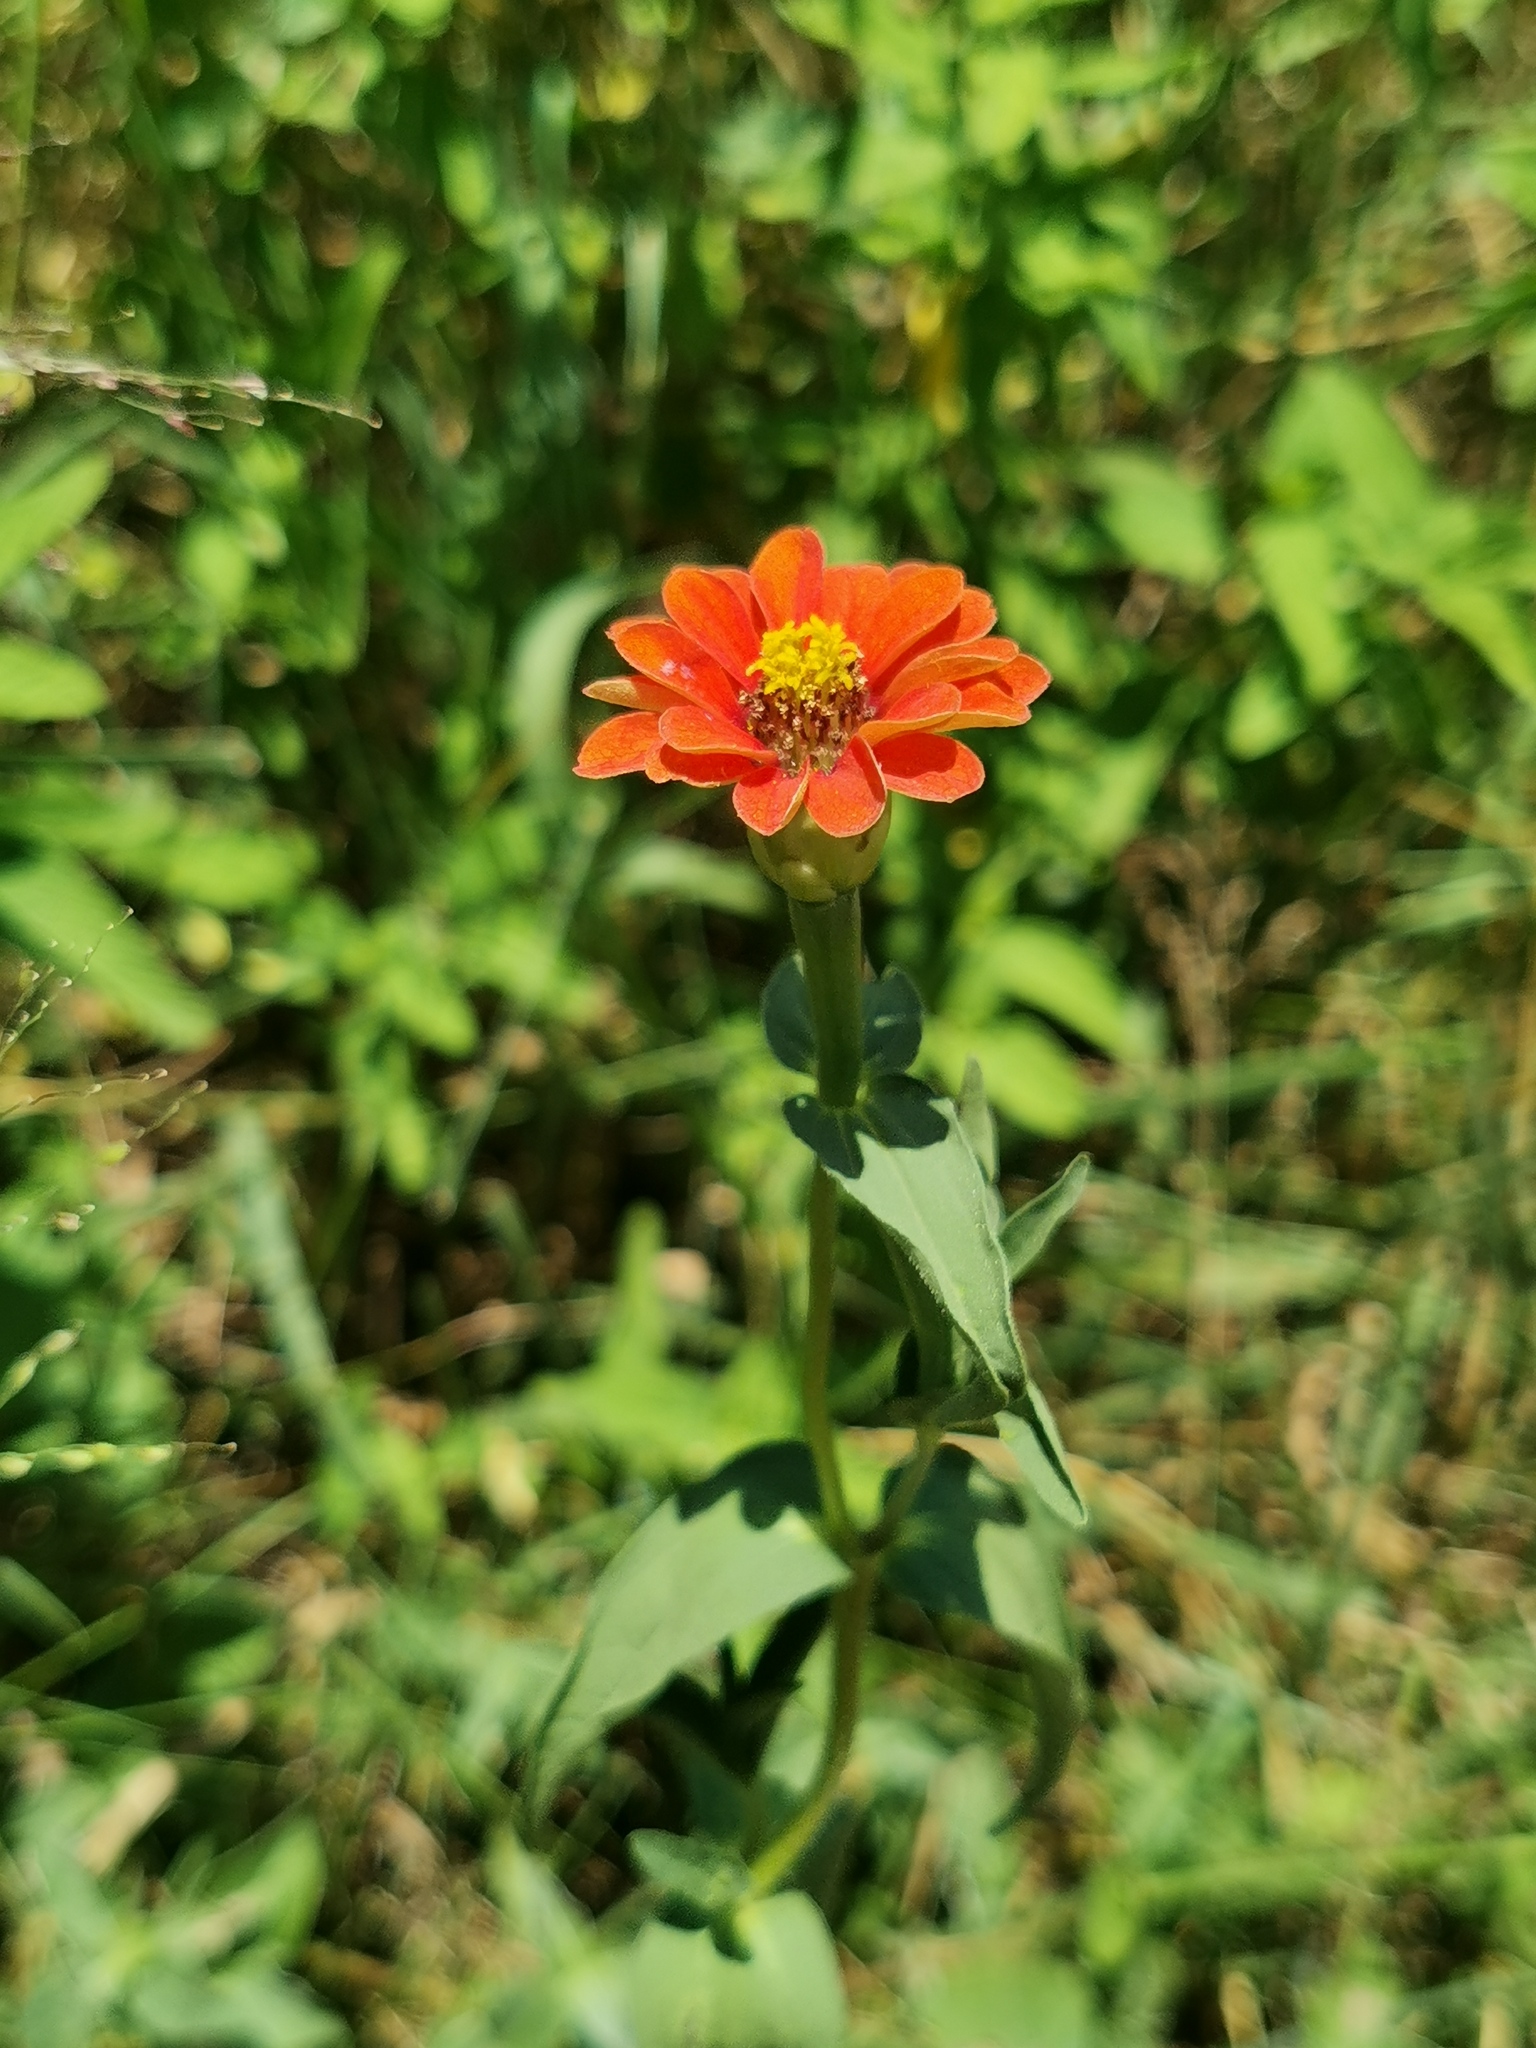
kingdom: Plantae
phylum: Tracheophyta
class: Magnoliopsida
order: Asterales
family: Asteraceae
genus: Zinnia
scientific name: Zinnia peruviana
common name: Peruvian zinnia
